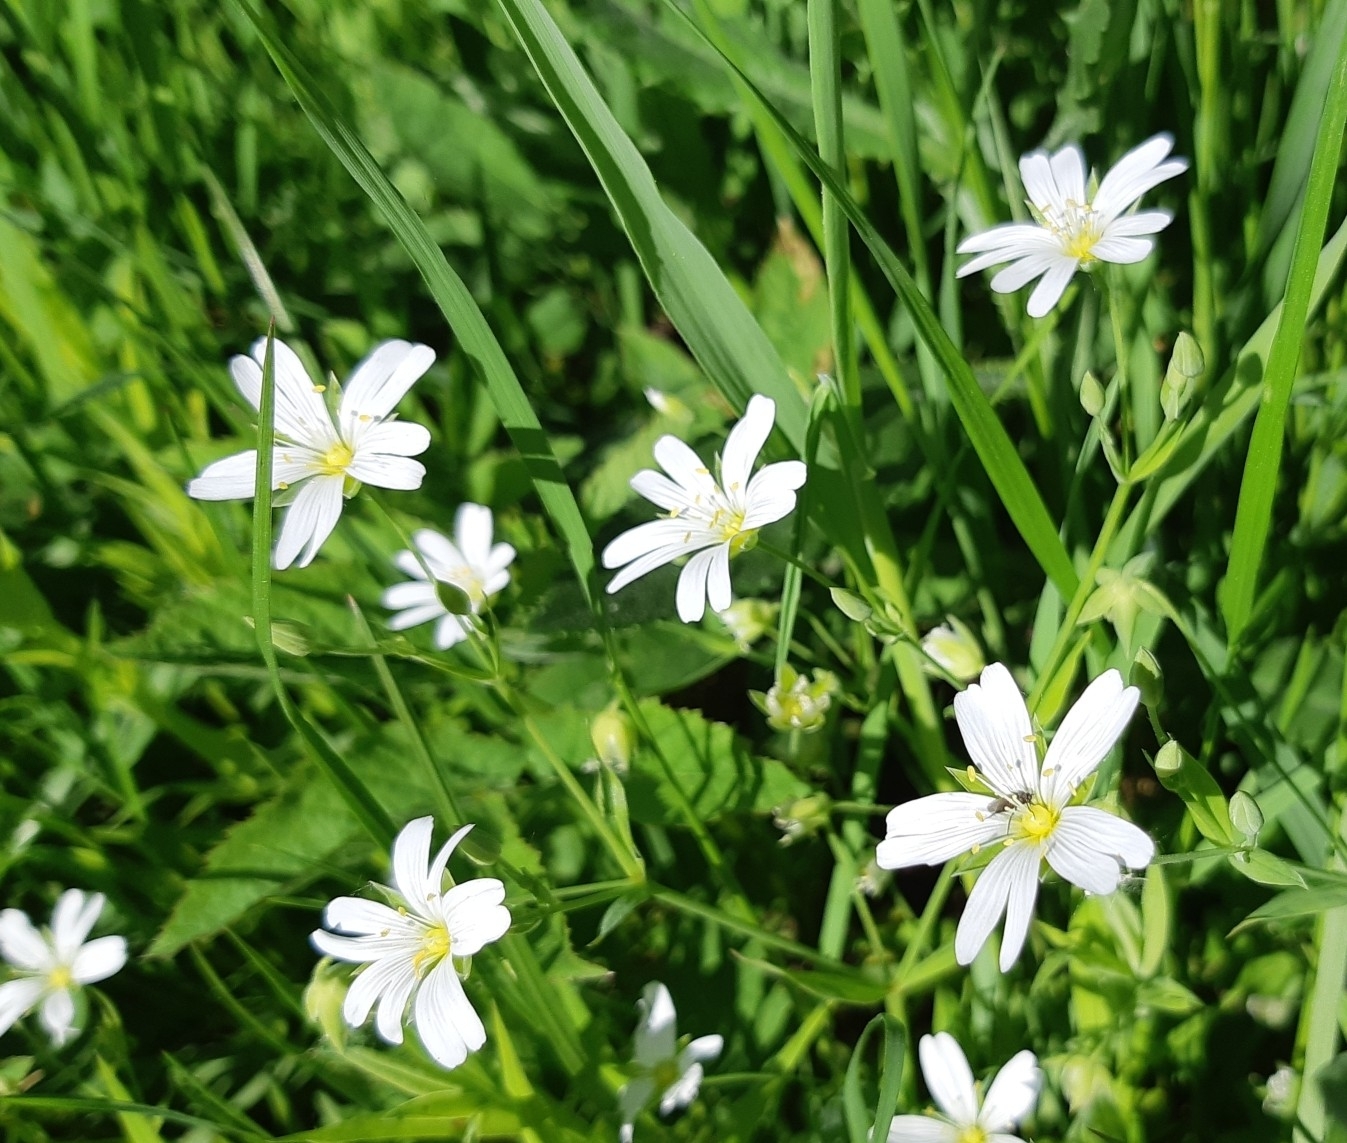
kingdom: Plantae
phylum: Tracheophyta
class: Magnoliopsida
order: Caryophyllales
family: Caryophyllaceae
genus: Rabelera
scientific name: Rabelera holostea
